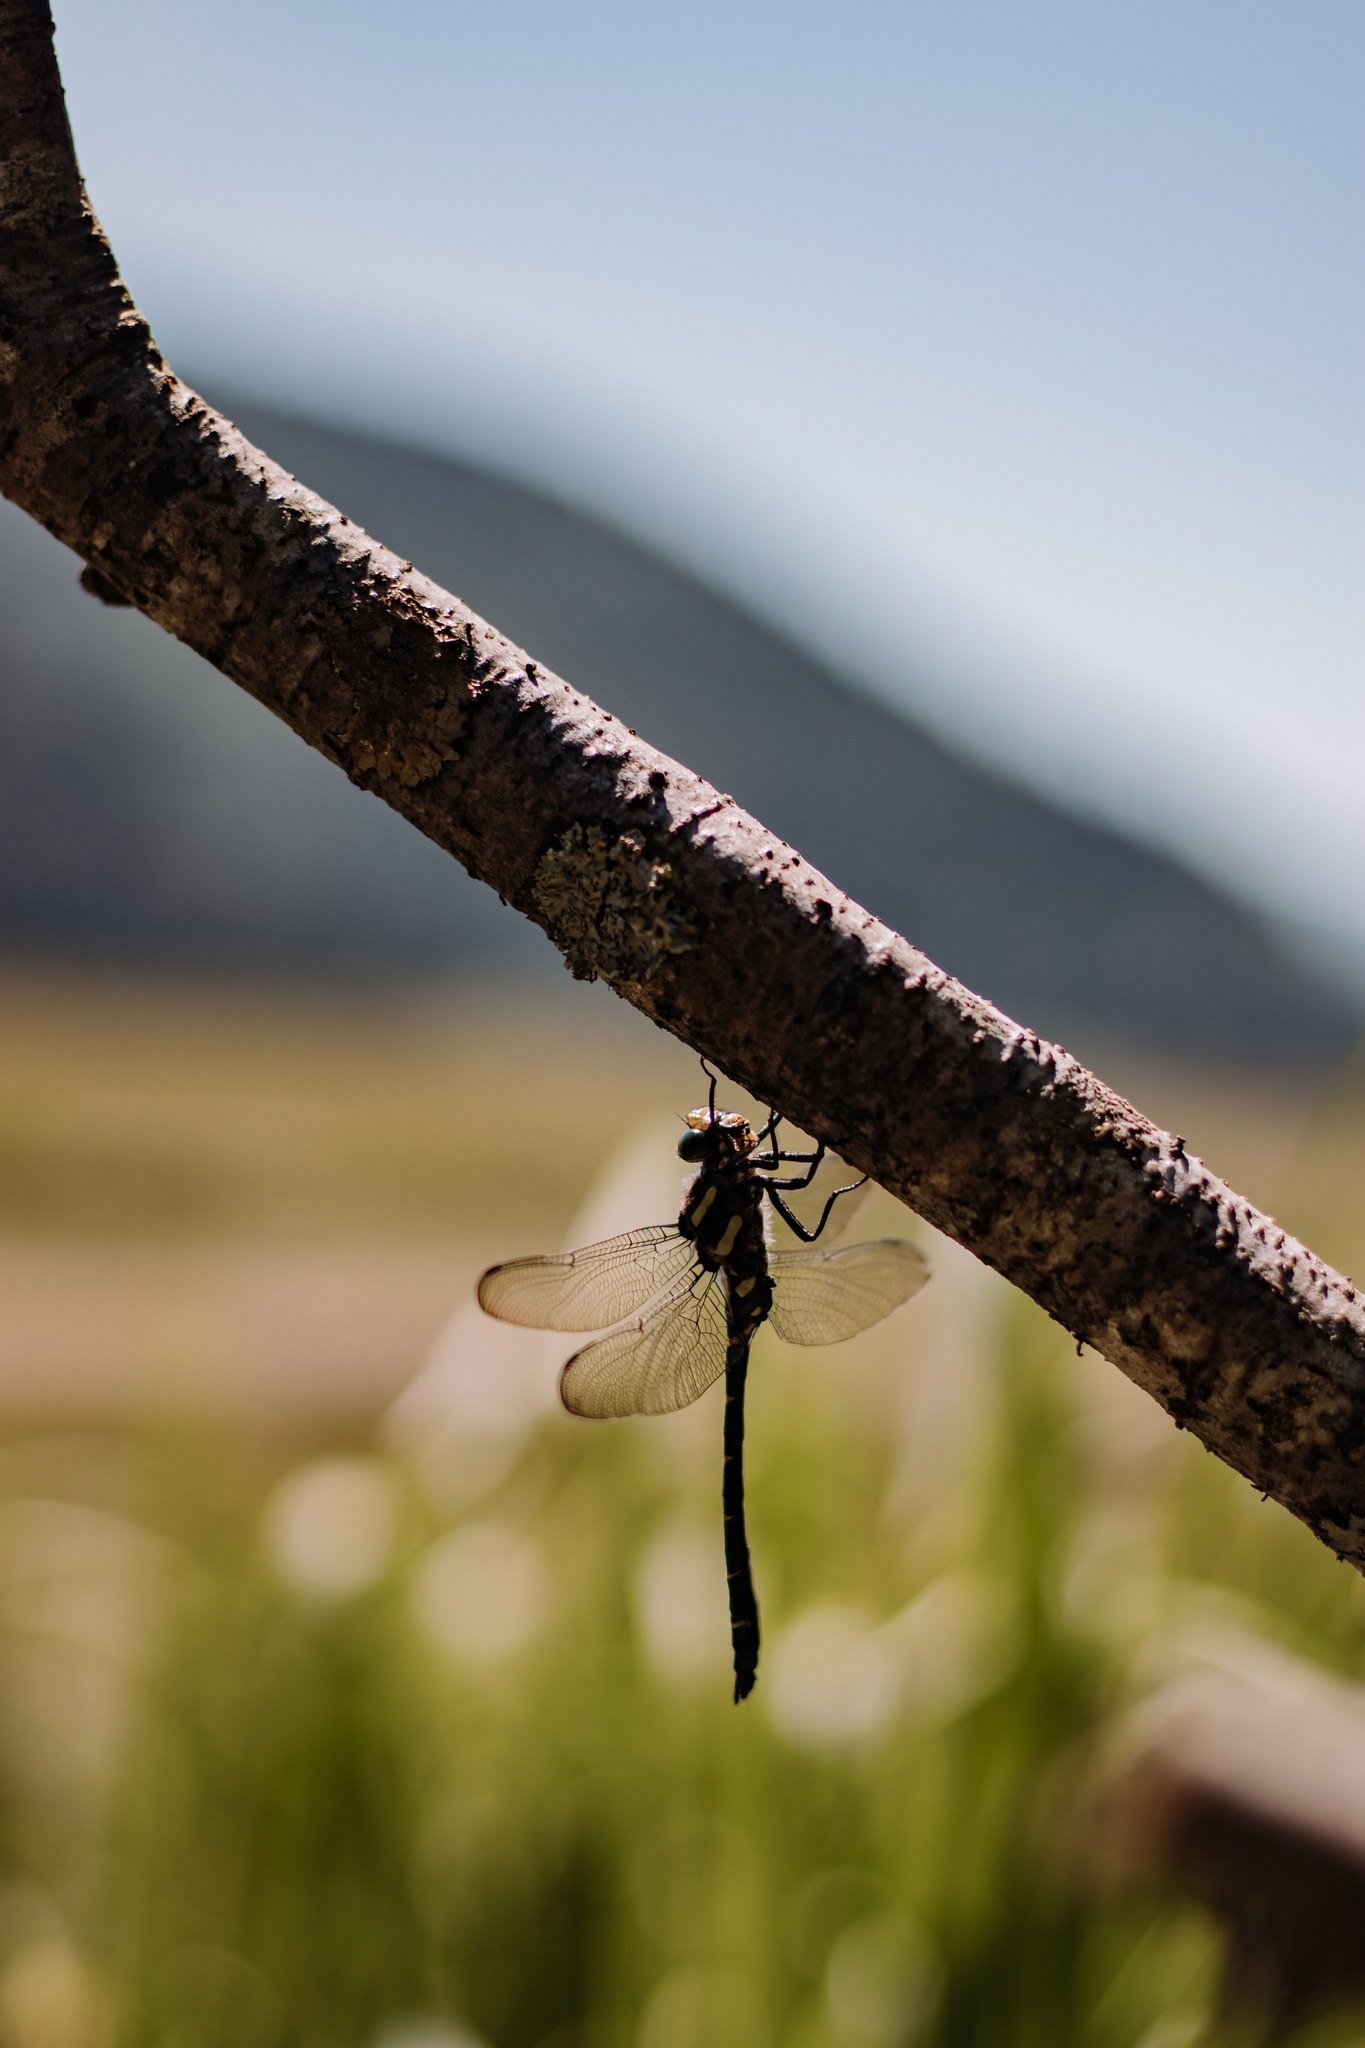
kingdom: Animalia
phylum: Arthropoda
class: Insecta
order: Odonata
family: Cordulegastridae
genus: Cordulegaster
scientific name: Cordulegaster bidentata
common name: Sombre goldenring
